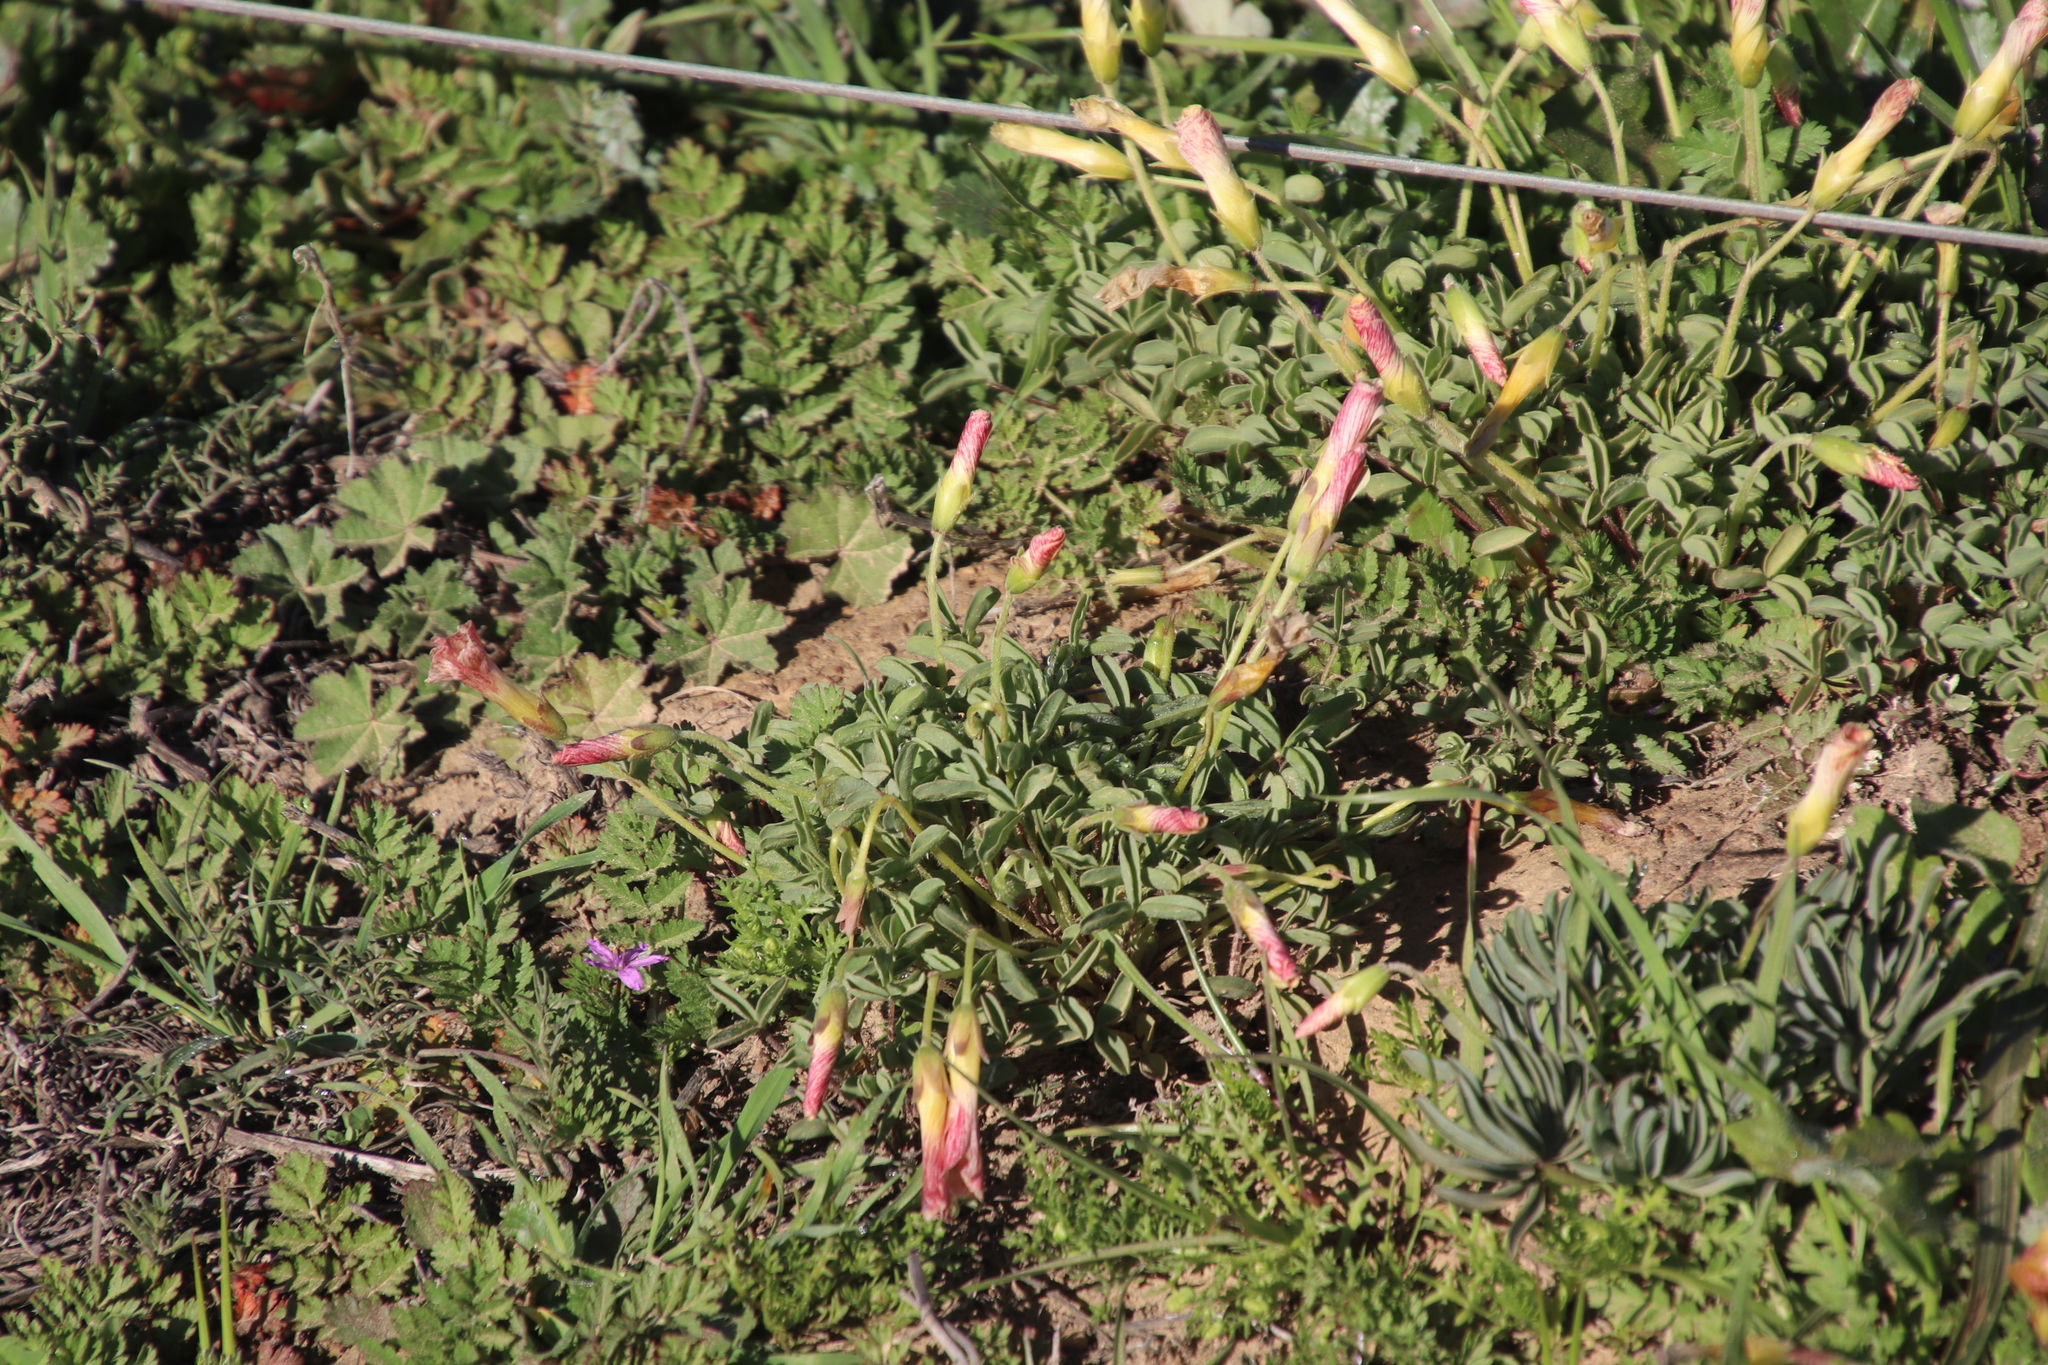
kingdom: Plantae
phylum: Tracheophyta
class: Magnoliopsida
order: Oxalidales
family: Oxalidaceae
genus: Oxalis
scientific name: Oxalis obtusa
